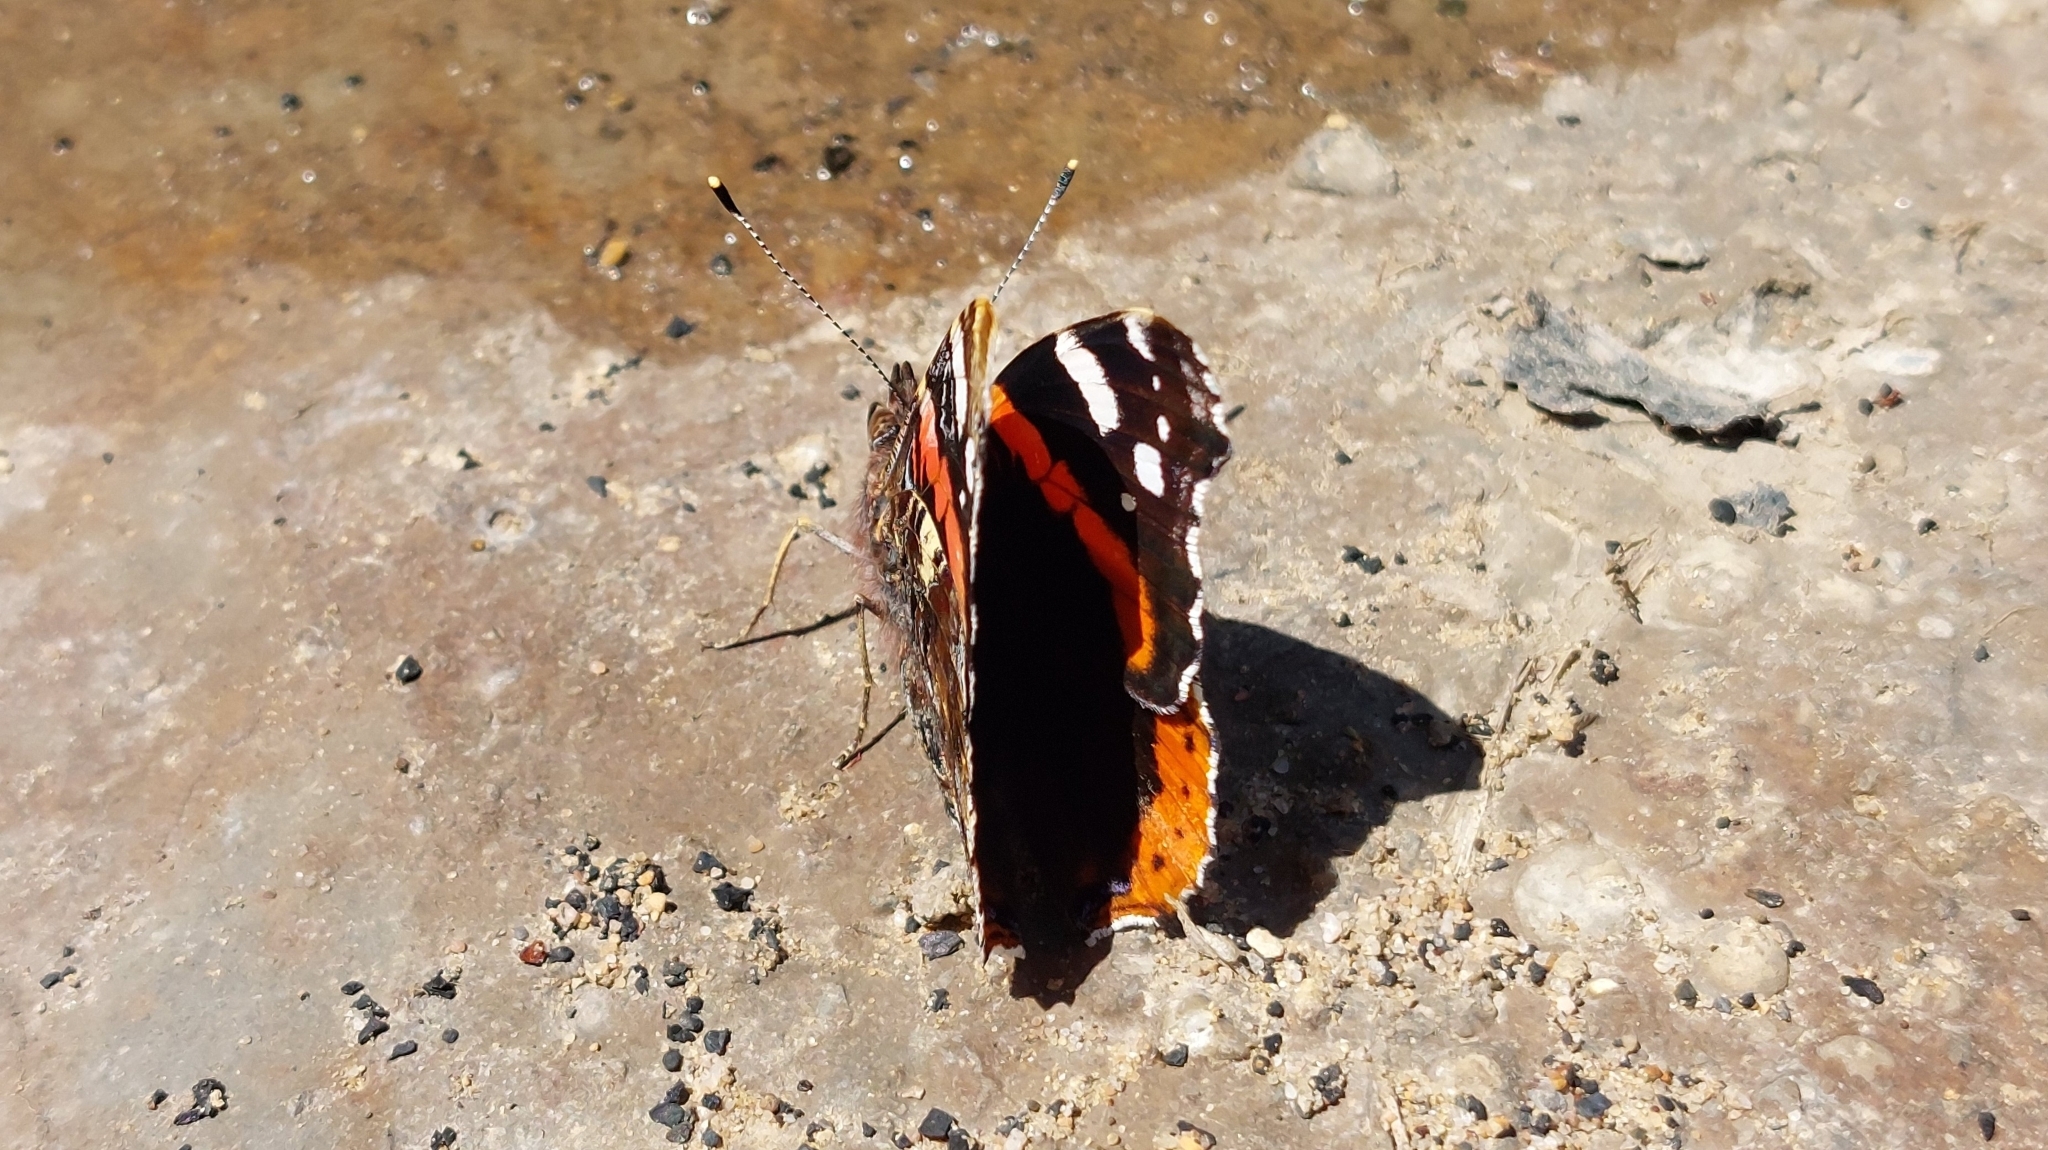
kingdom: Animalia
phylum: Arthropoda
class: Insecta
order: Lepidoptera
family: Nymphalidae
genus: Vanessa
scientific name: Vanessa atalanta
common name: Red admiral
